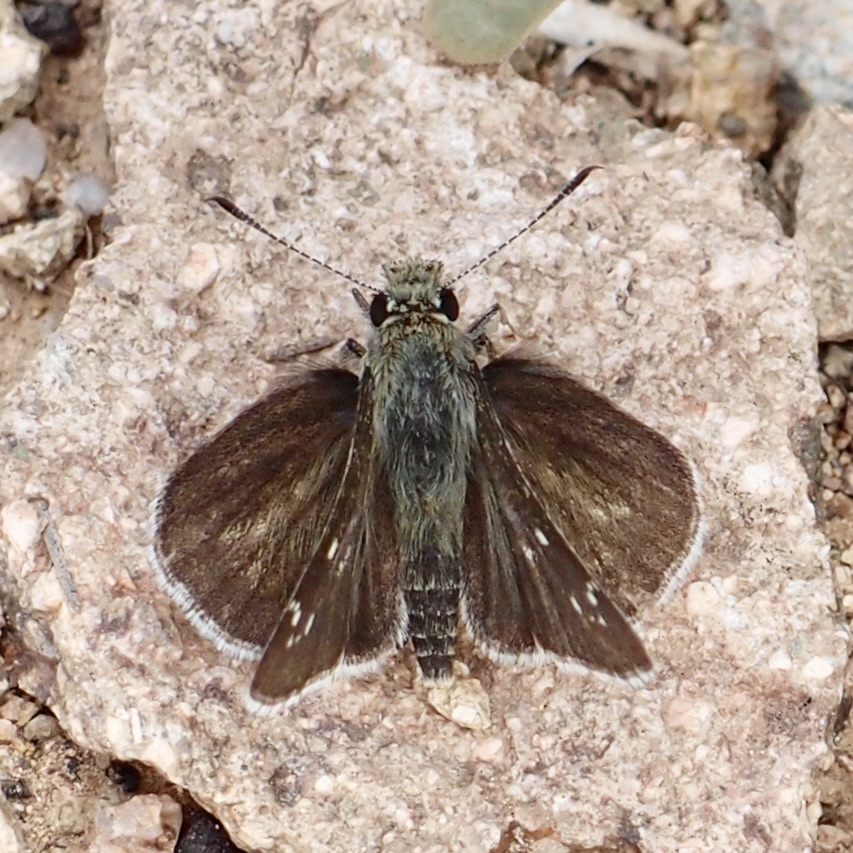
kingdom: Animalia
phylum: Arthropoda
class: Insecta
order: Lepidoptera
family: Hesperiidae
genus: Amblyscirtes
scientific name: Amblyscirtes arizonae
